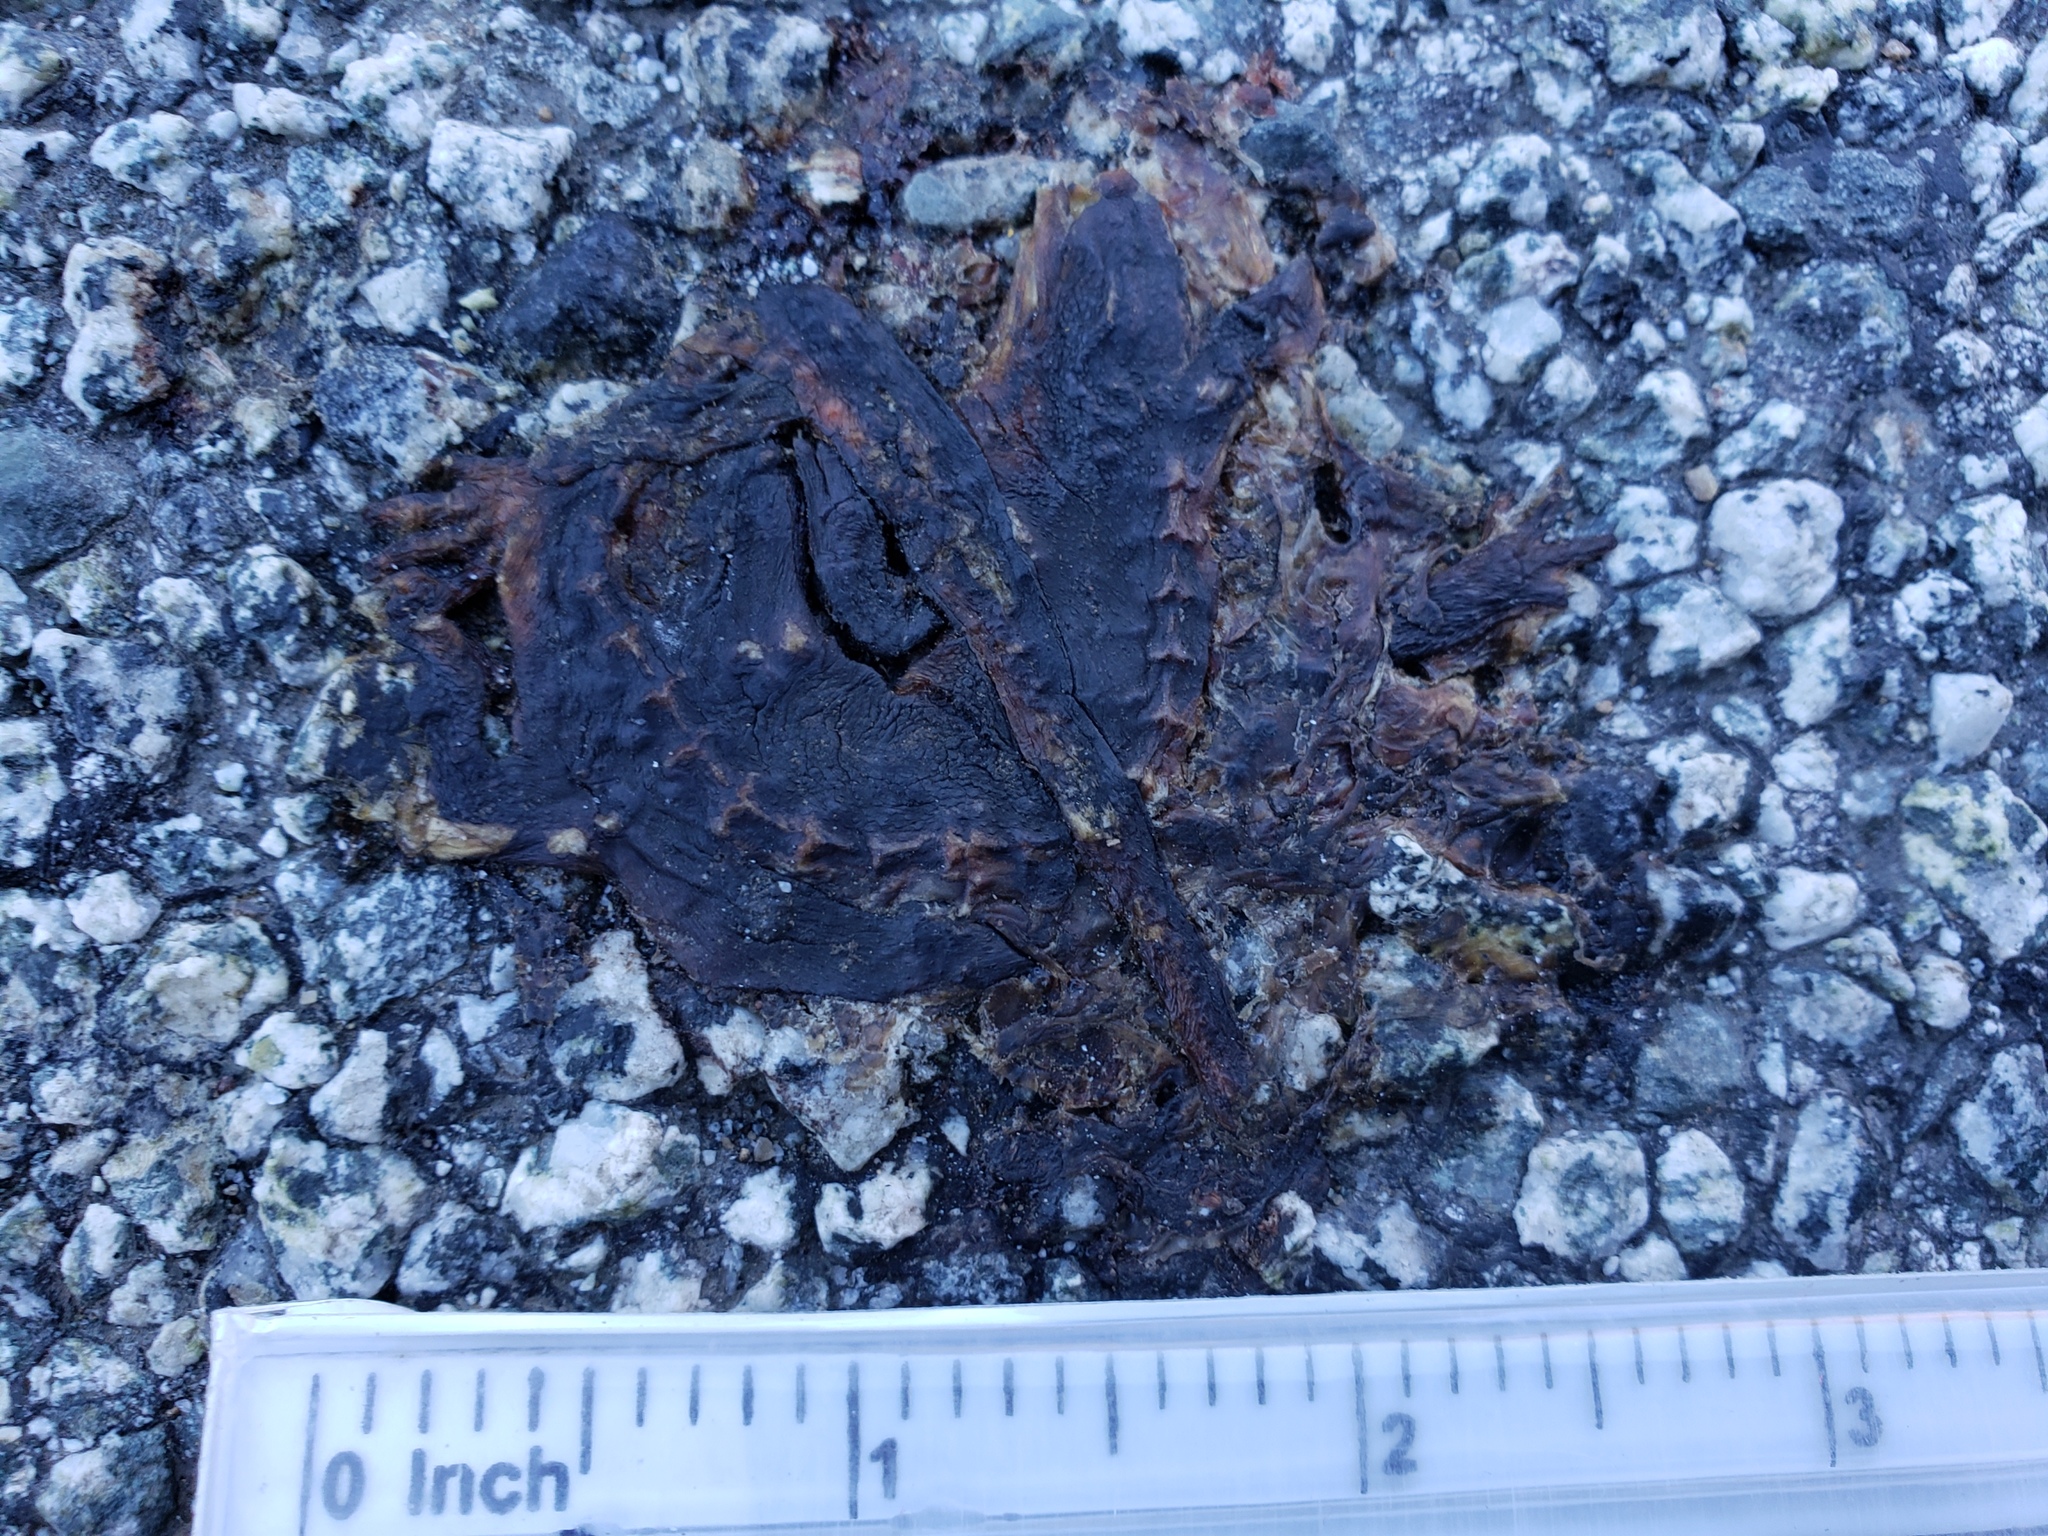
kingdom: Animalia
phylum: Chordata
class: Amphibia
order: Caudata
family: Salamandridae
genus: Taricha
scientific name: Taricha
